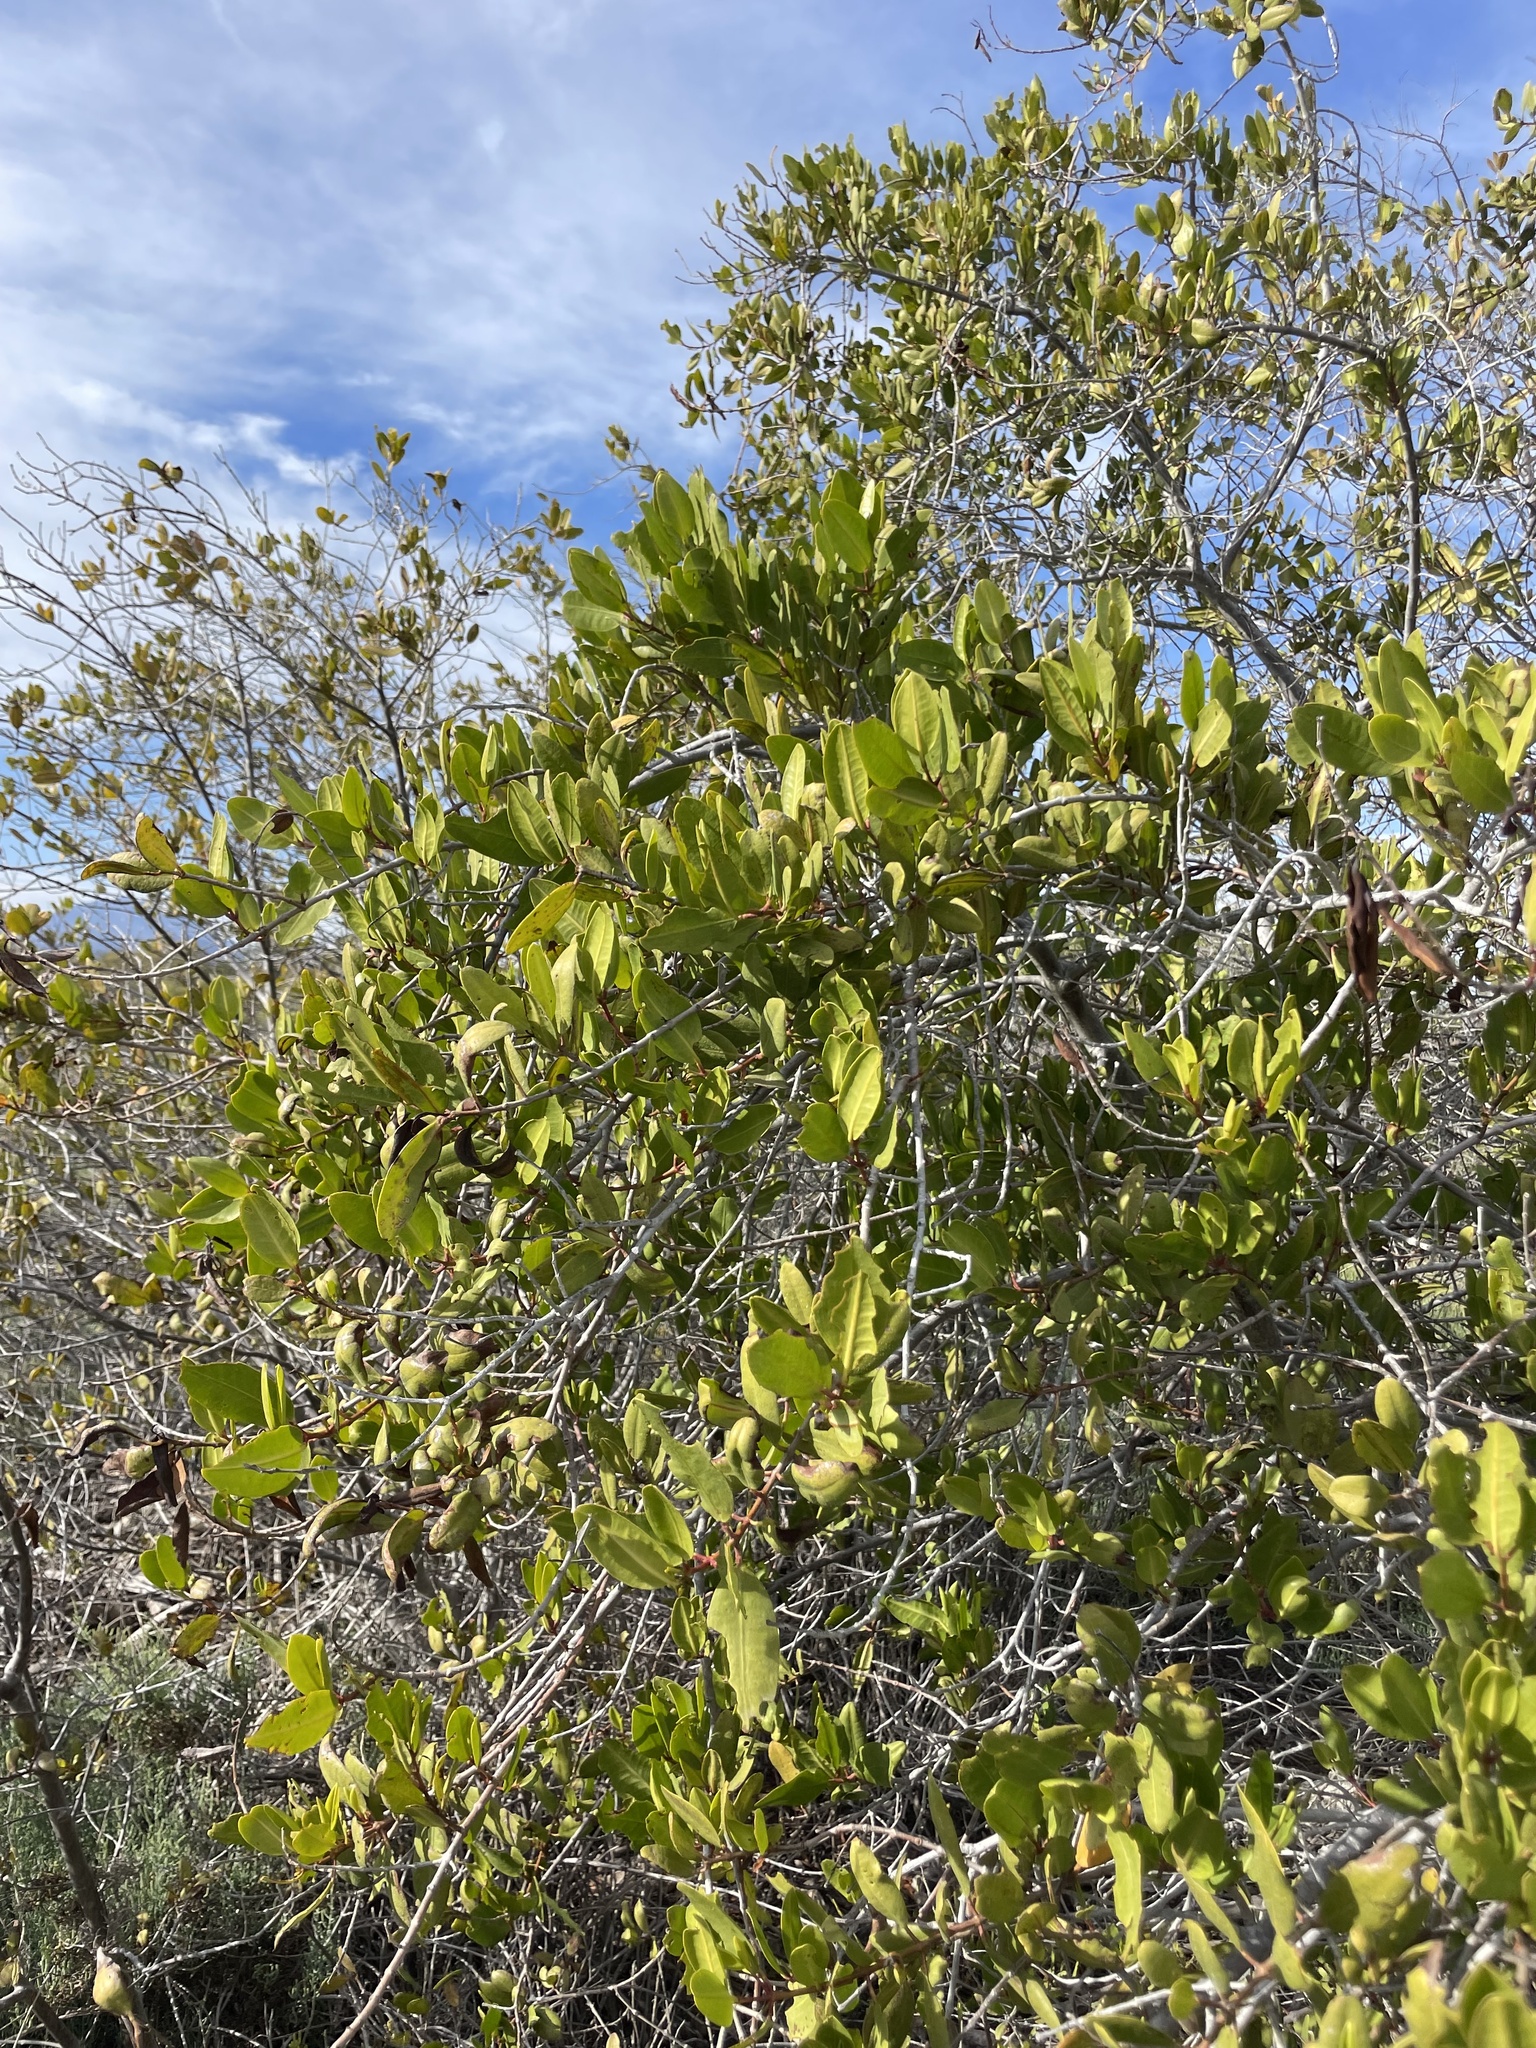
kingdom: Plantae
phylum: Tracheophyta
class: Magnoliopsida
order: Myrtales
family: Combretaceae
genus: Laguncularia
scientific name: Laguncularia racemosa
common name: White mangrove
